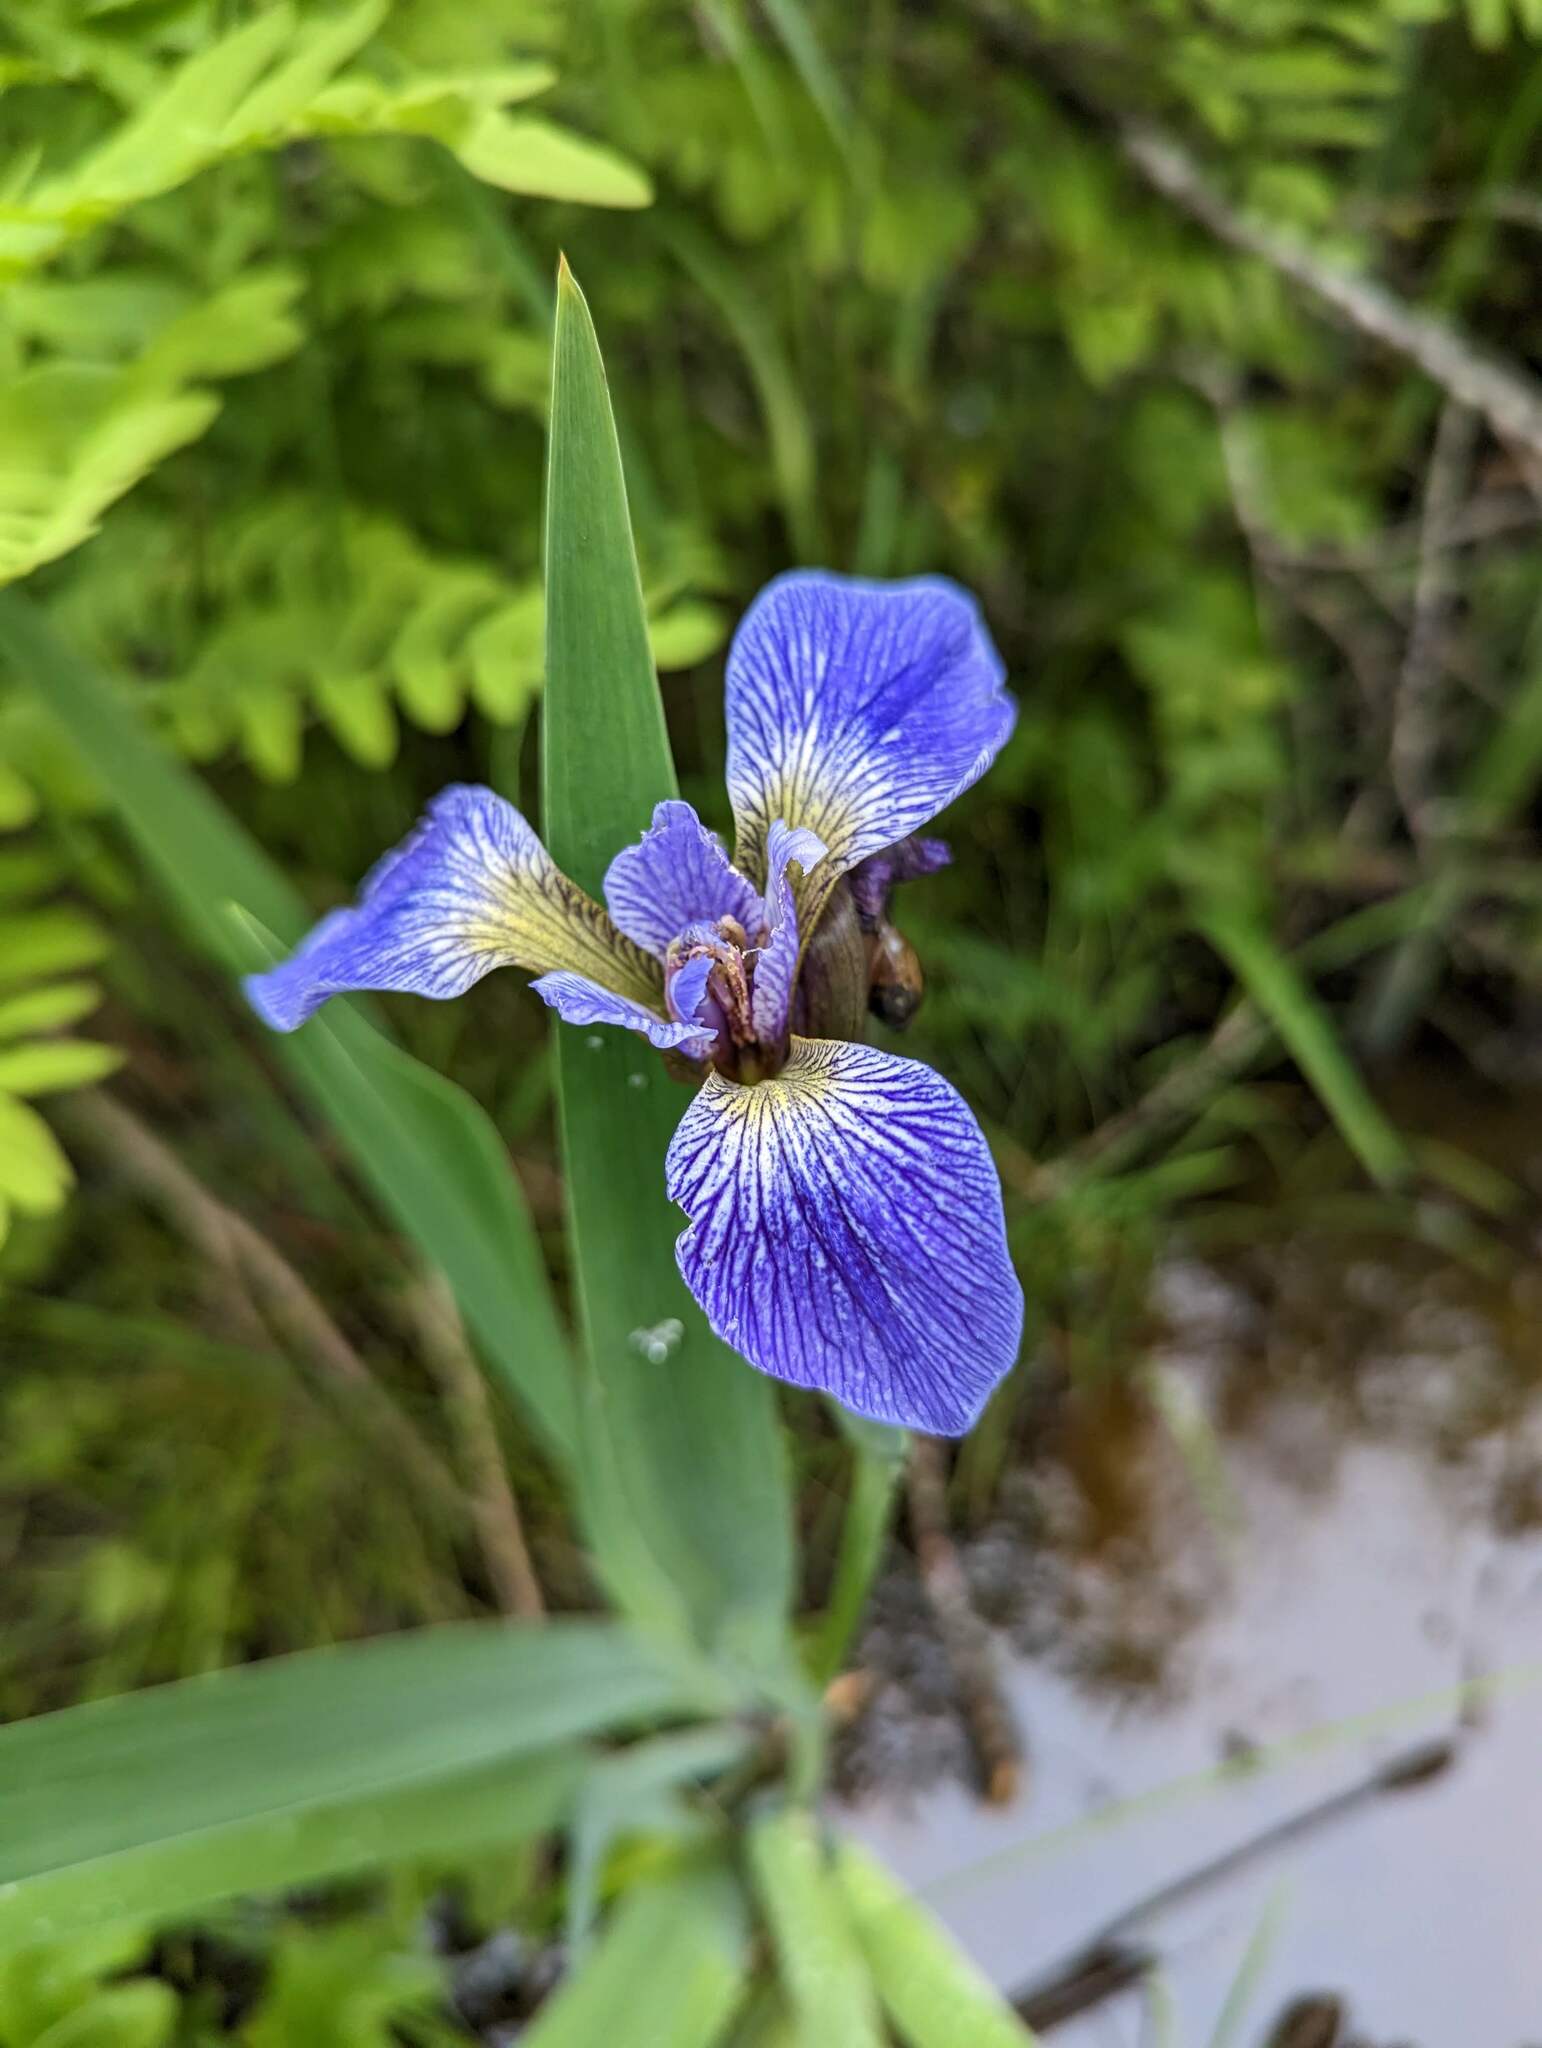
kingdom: Plantae
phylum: Tracheophyta
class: Liliopsida
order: Asparagales
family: Iridaceae
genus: Iris
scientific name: Iris versicolor
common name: Purple iris
